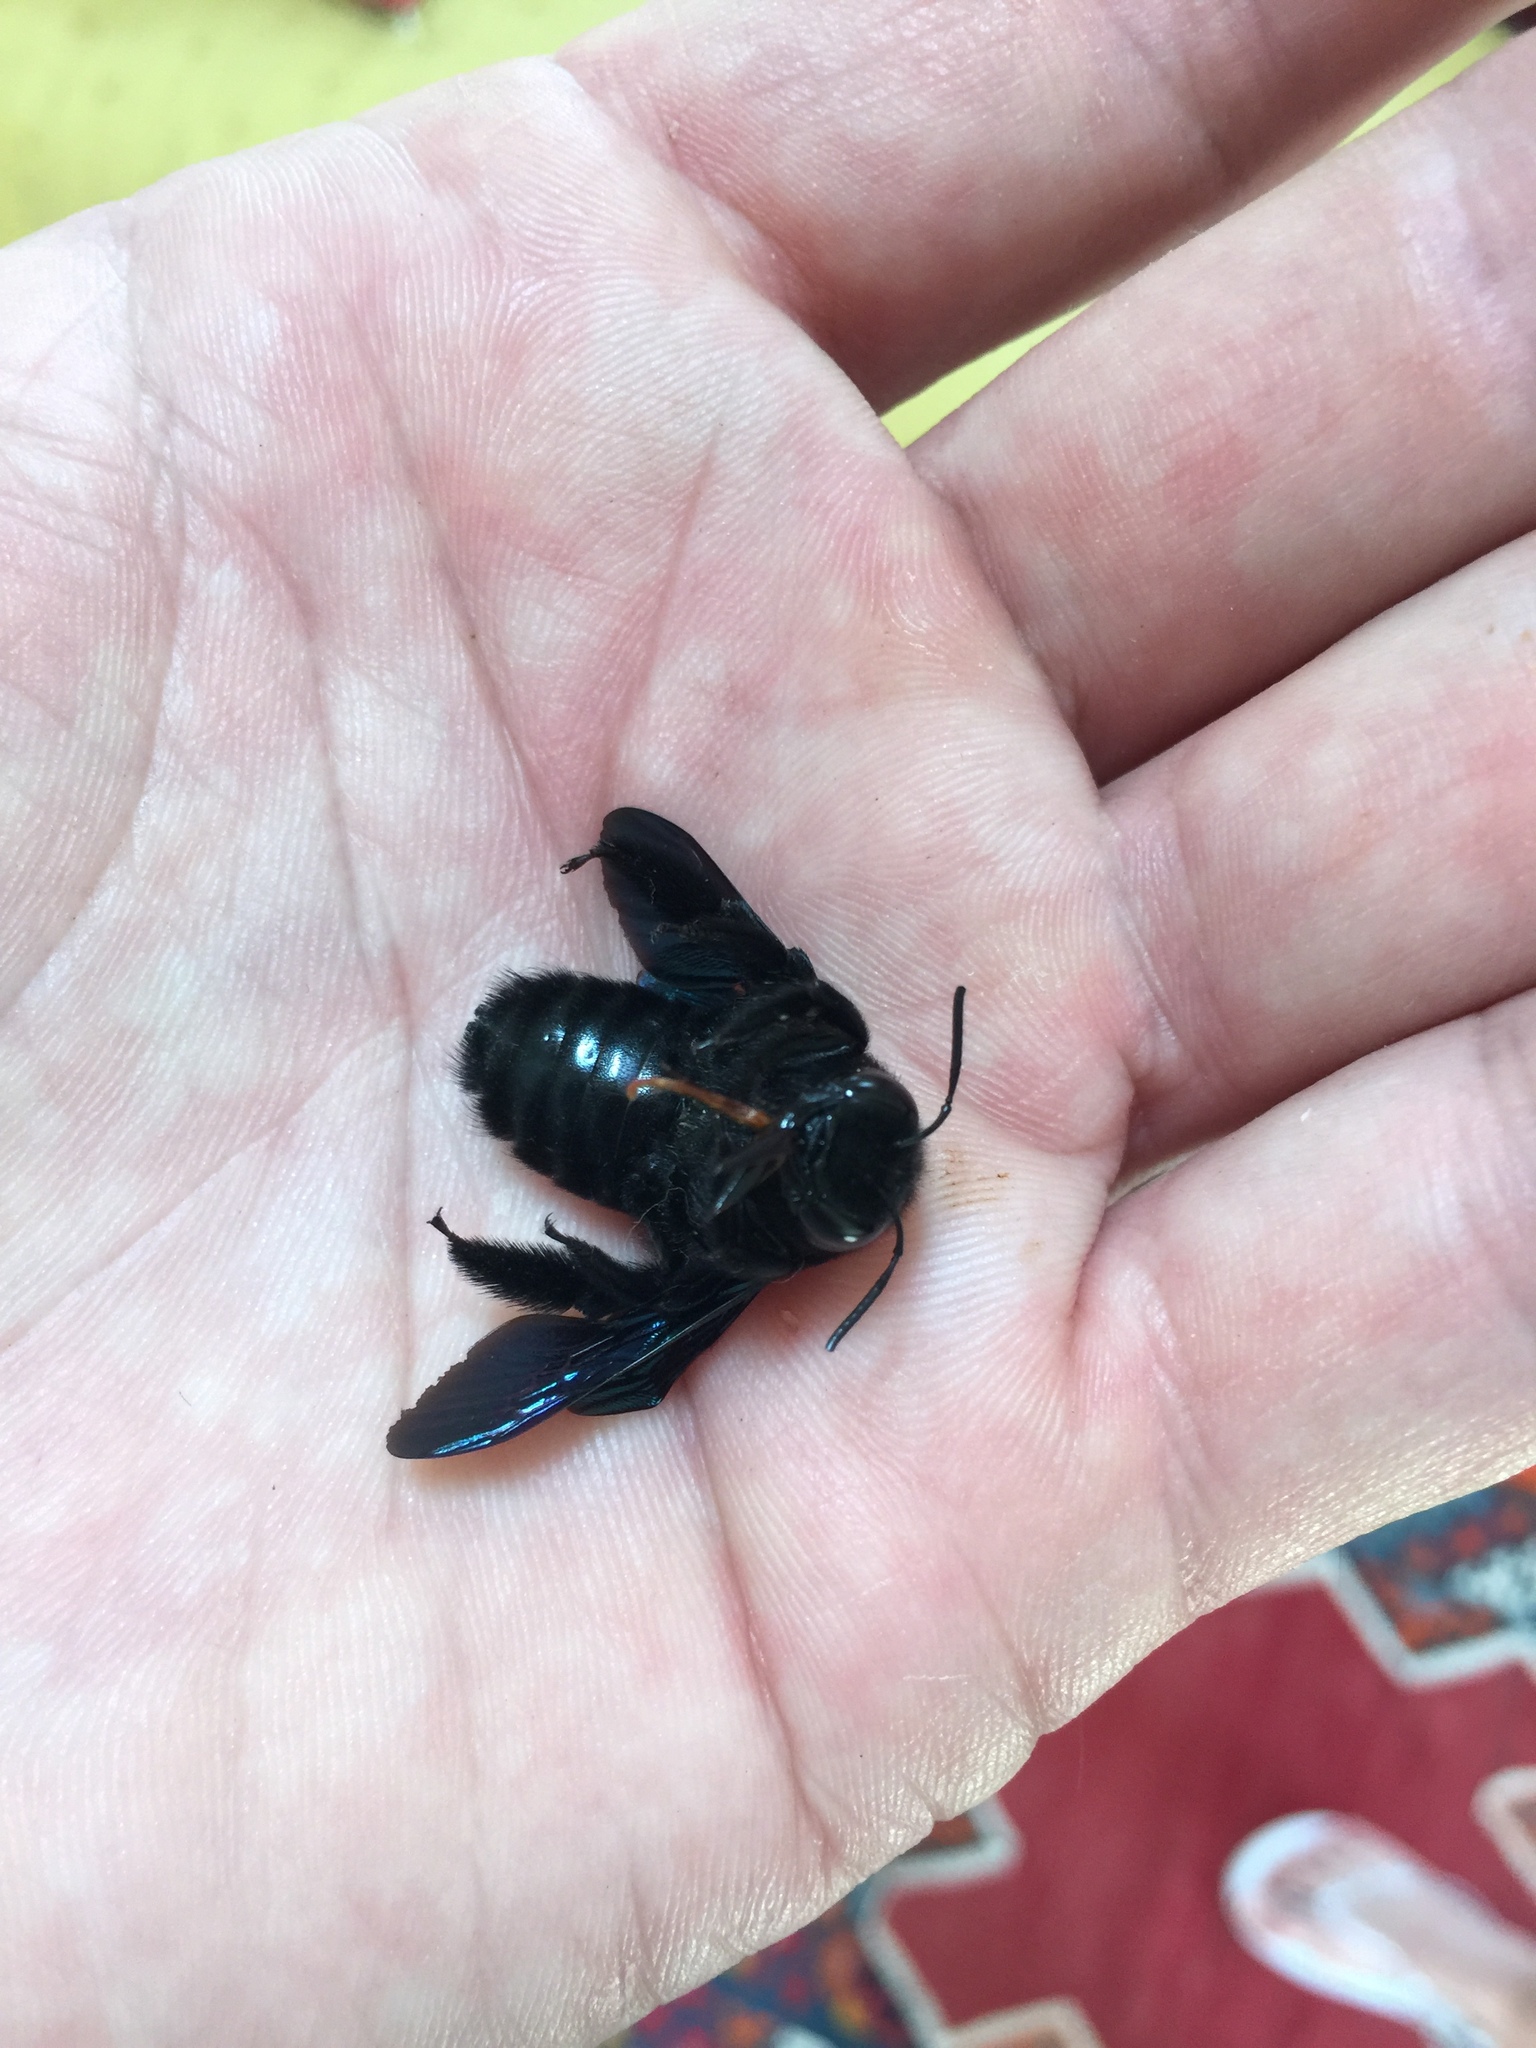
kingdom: Animalia
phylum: Arthropoda
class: Insecta
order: Hymenoptera
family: Apidae
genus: Xylocopa
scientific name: Xylocopa violacea
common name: Violet carpenter bee
